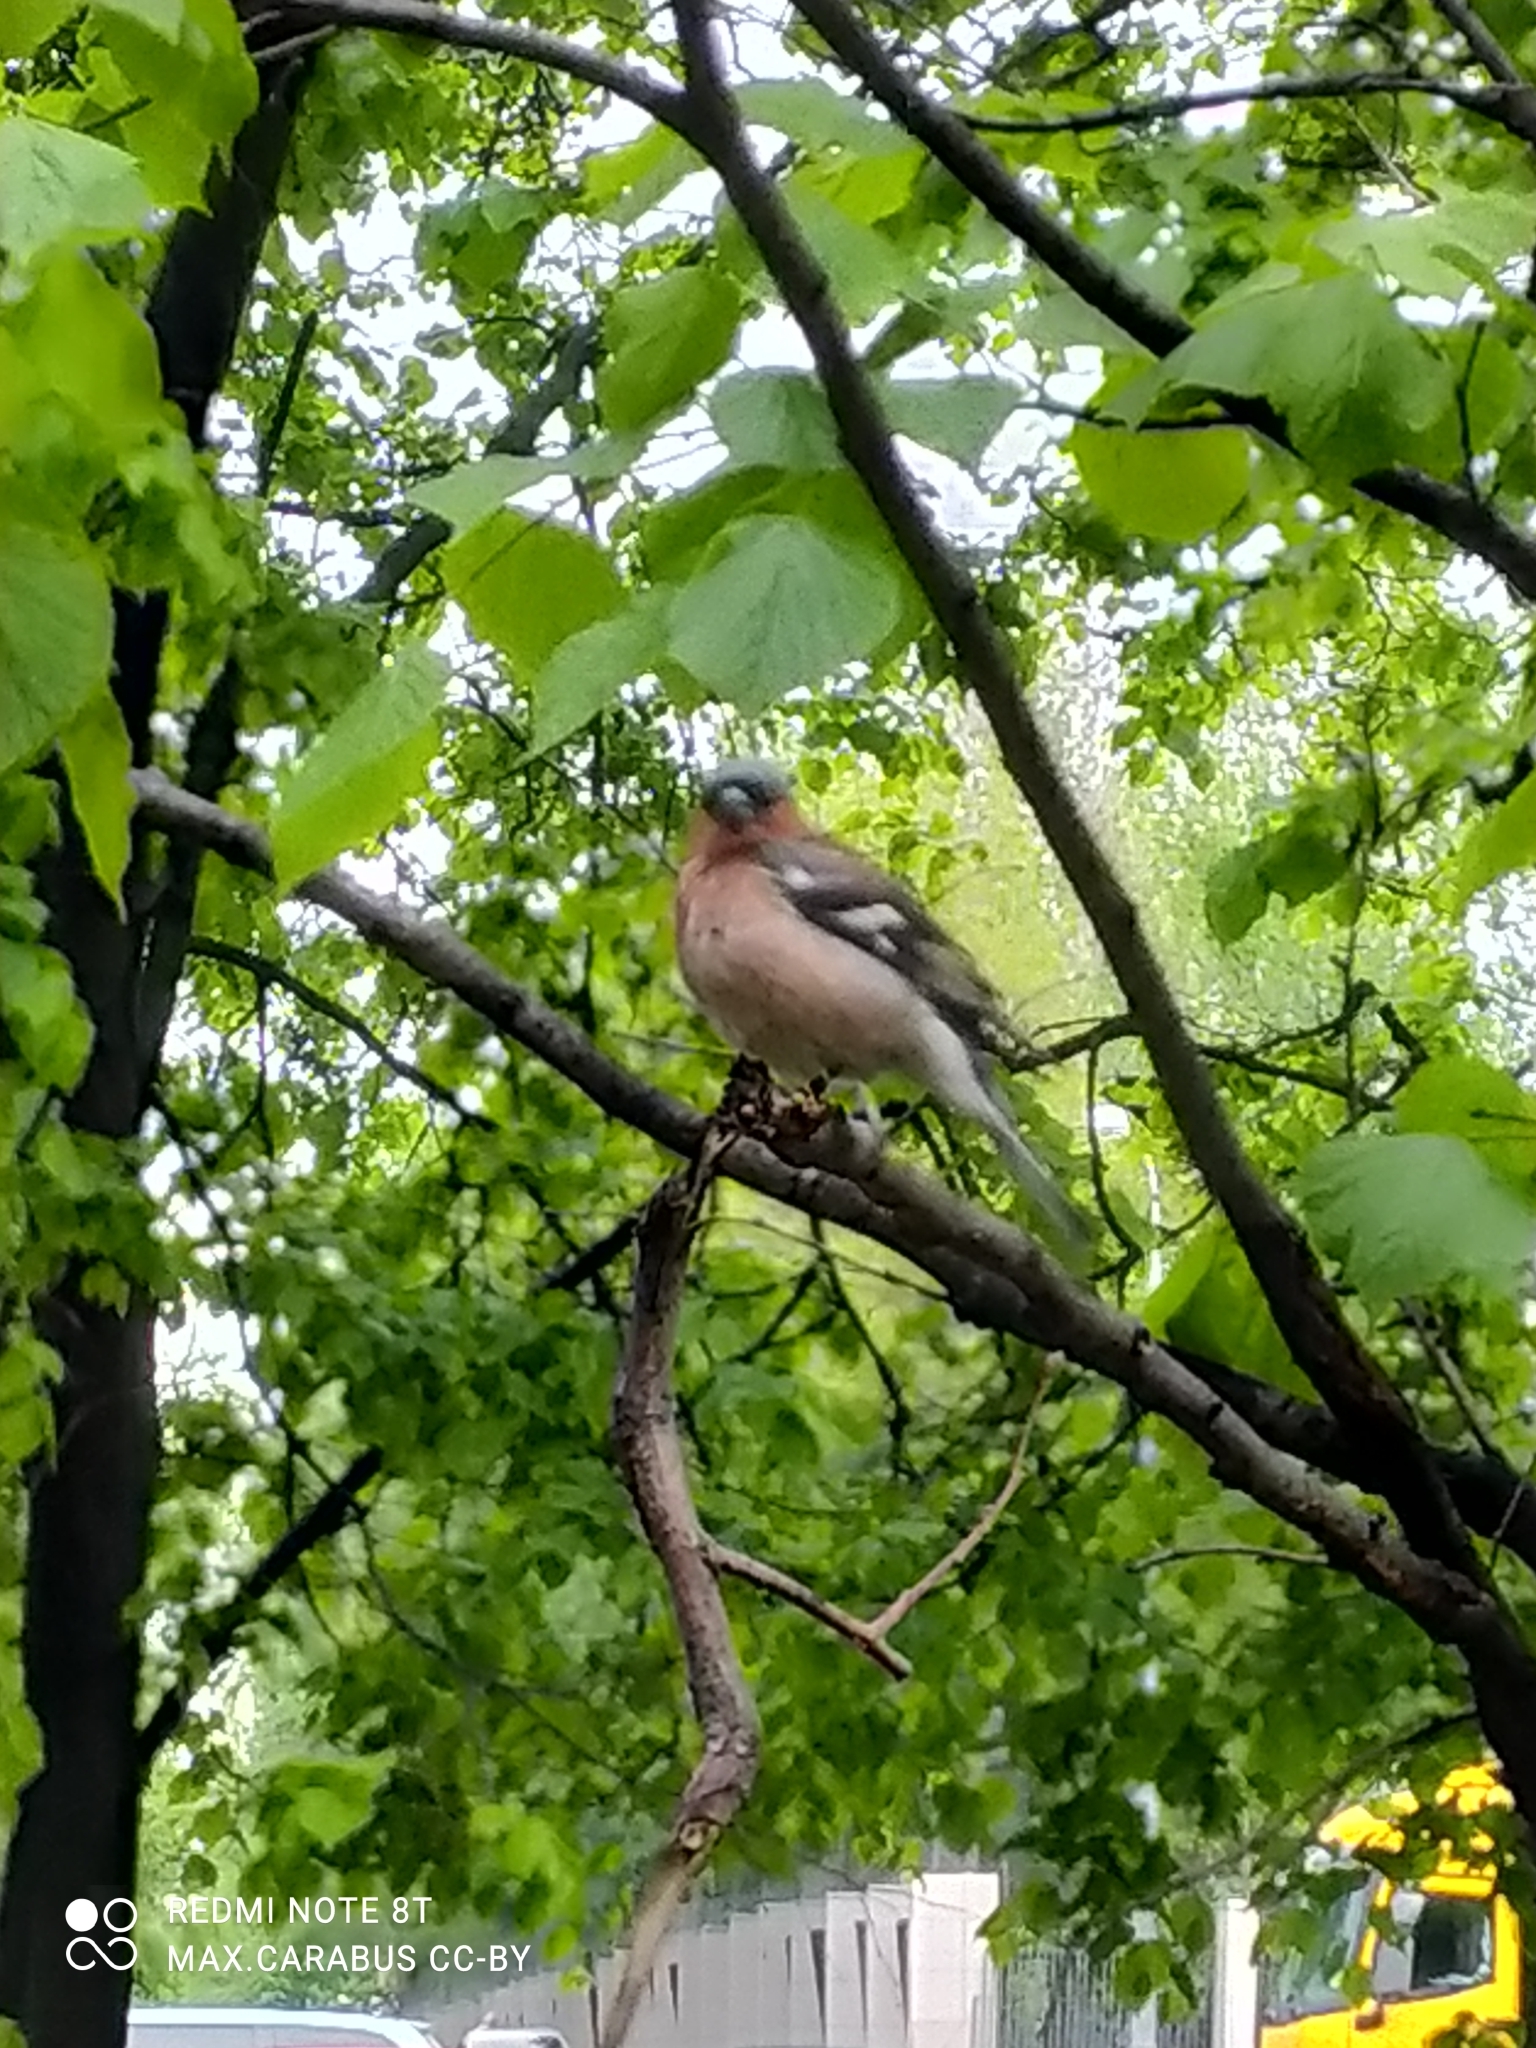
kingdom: Animalia
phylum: Chordata
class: Aves
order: Passeriformes
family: Fringillidae
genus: Fringilla
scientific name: Fringilla coelebs
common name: Common chaffinch
